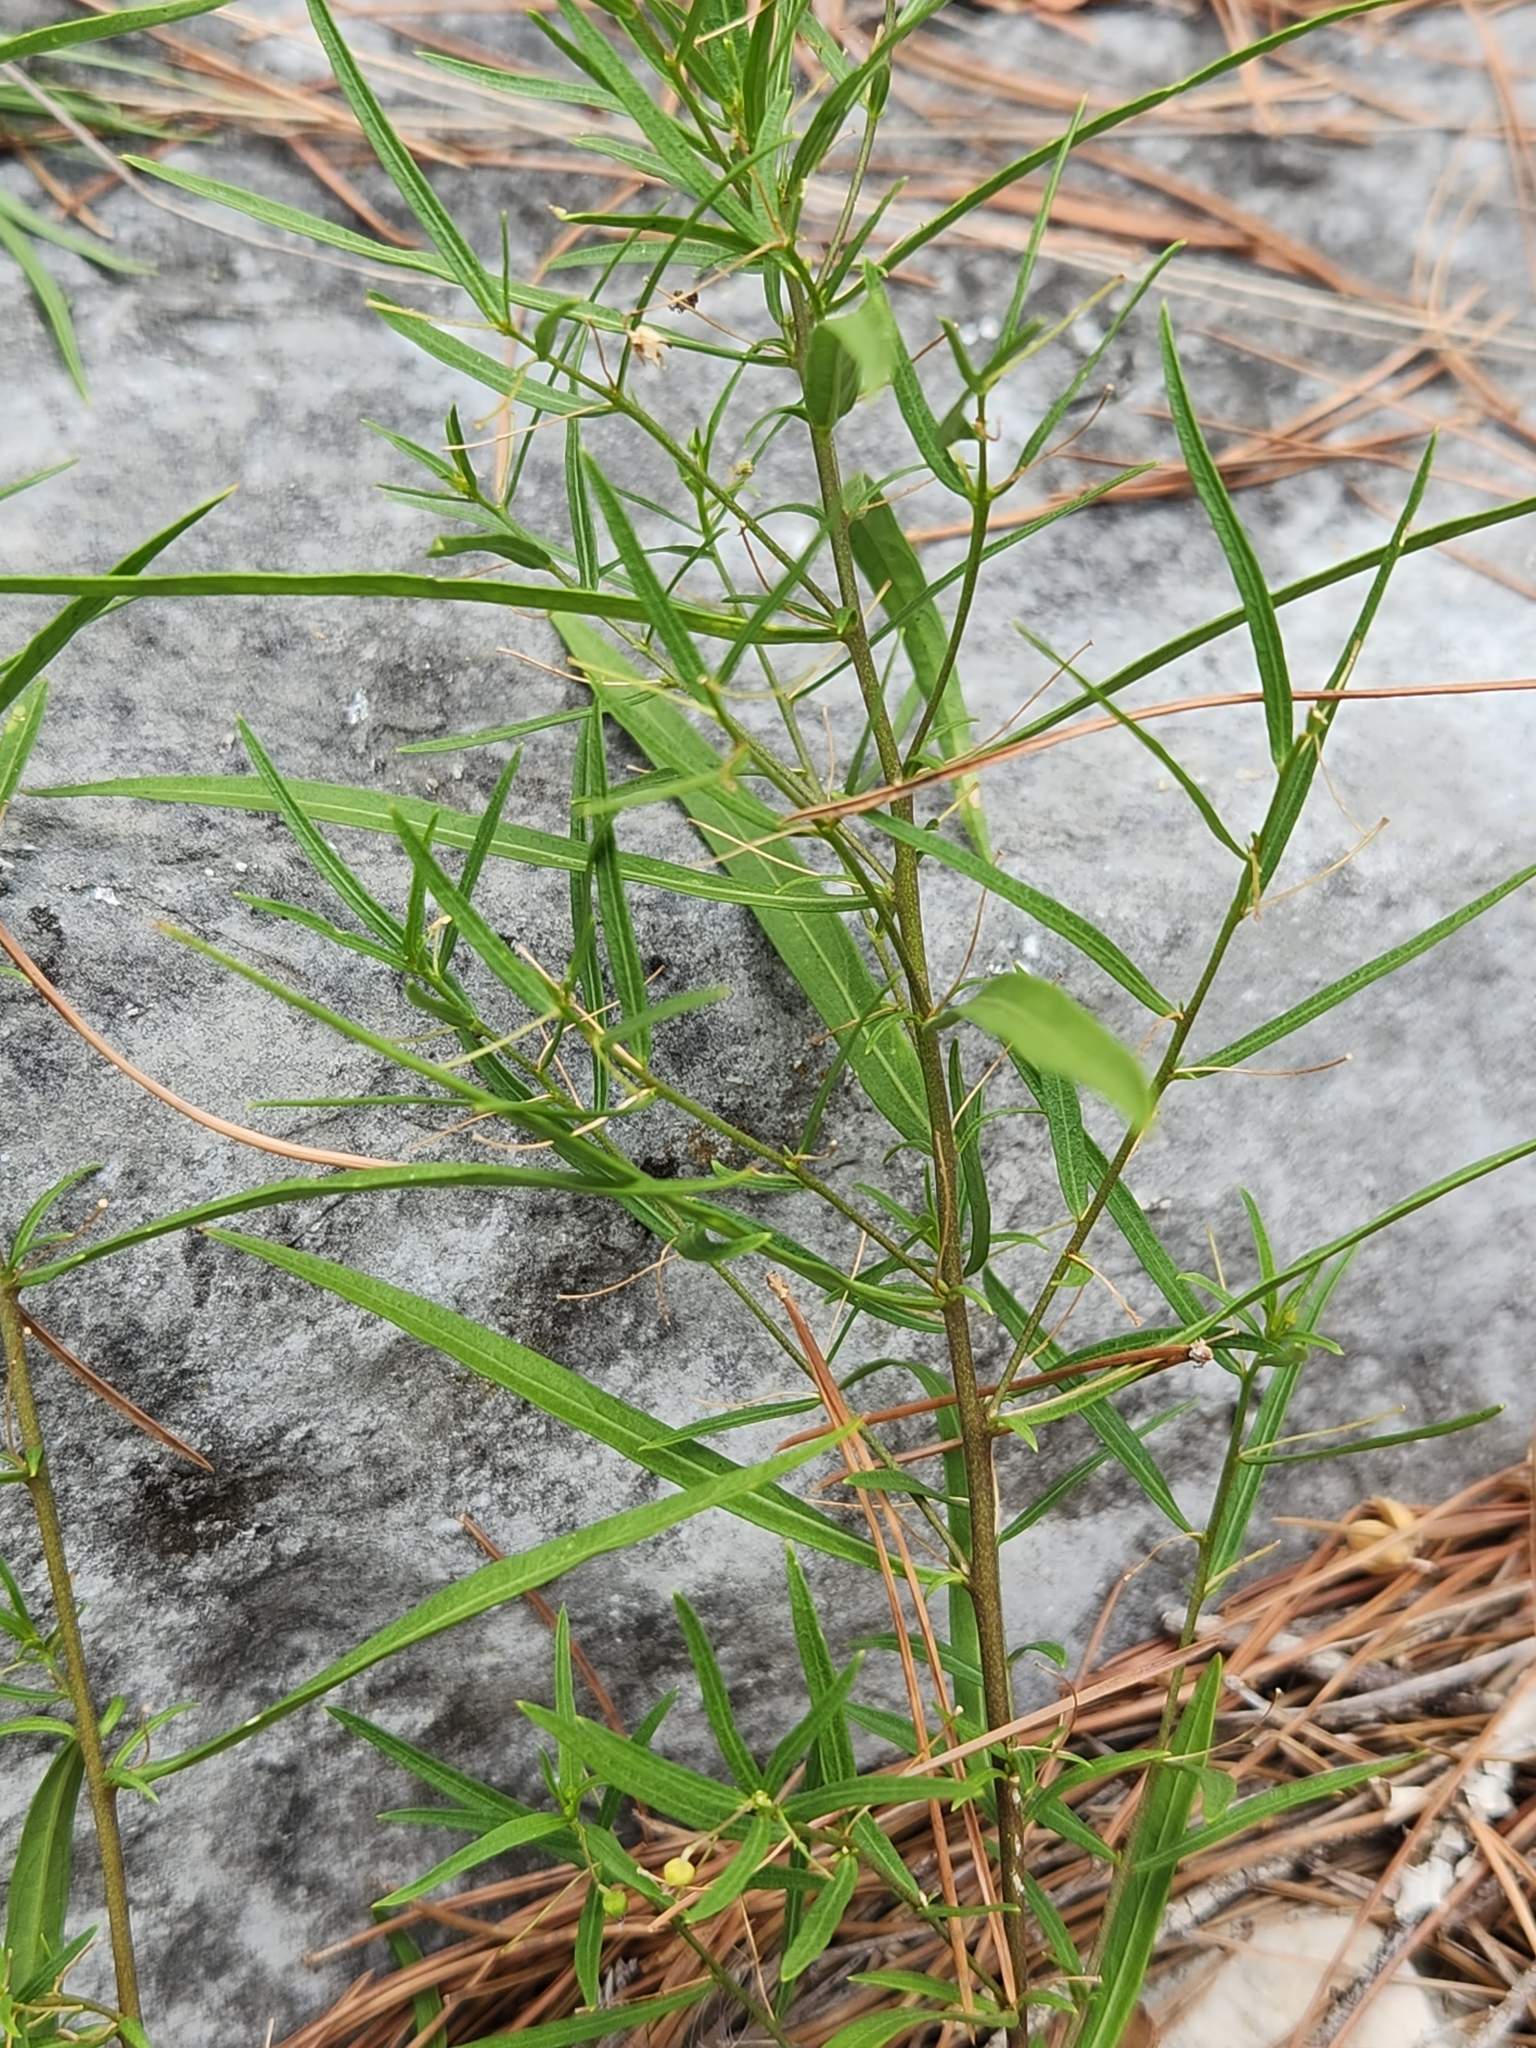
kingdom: Plantae
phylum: Tracheophyta
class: Magnoliopsida
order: Malpighiales
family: Violaceae
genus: Pombalia
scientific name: Pombalia verticillata
